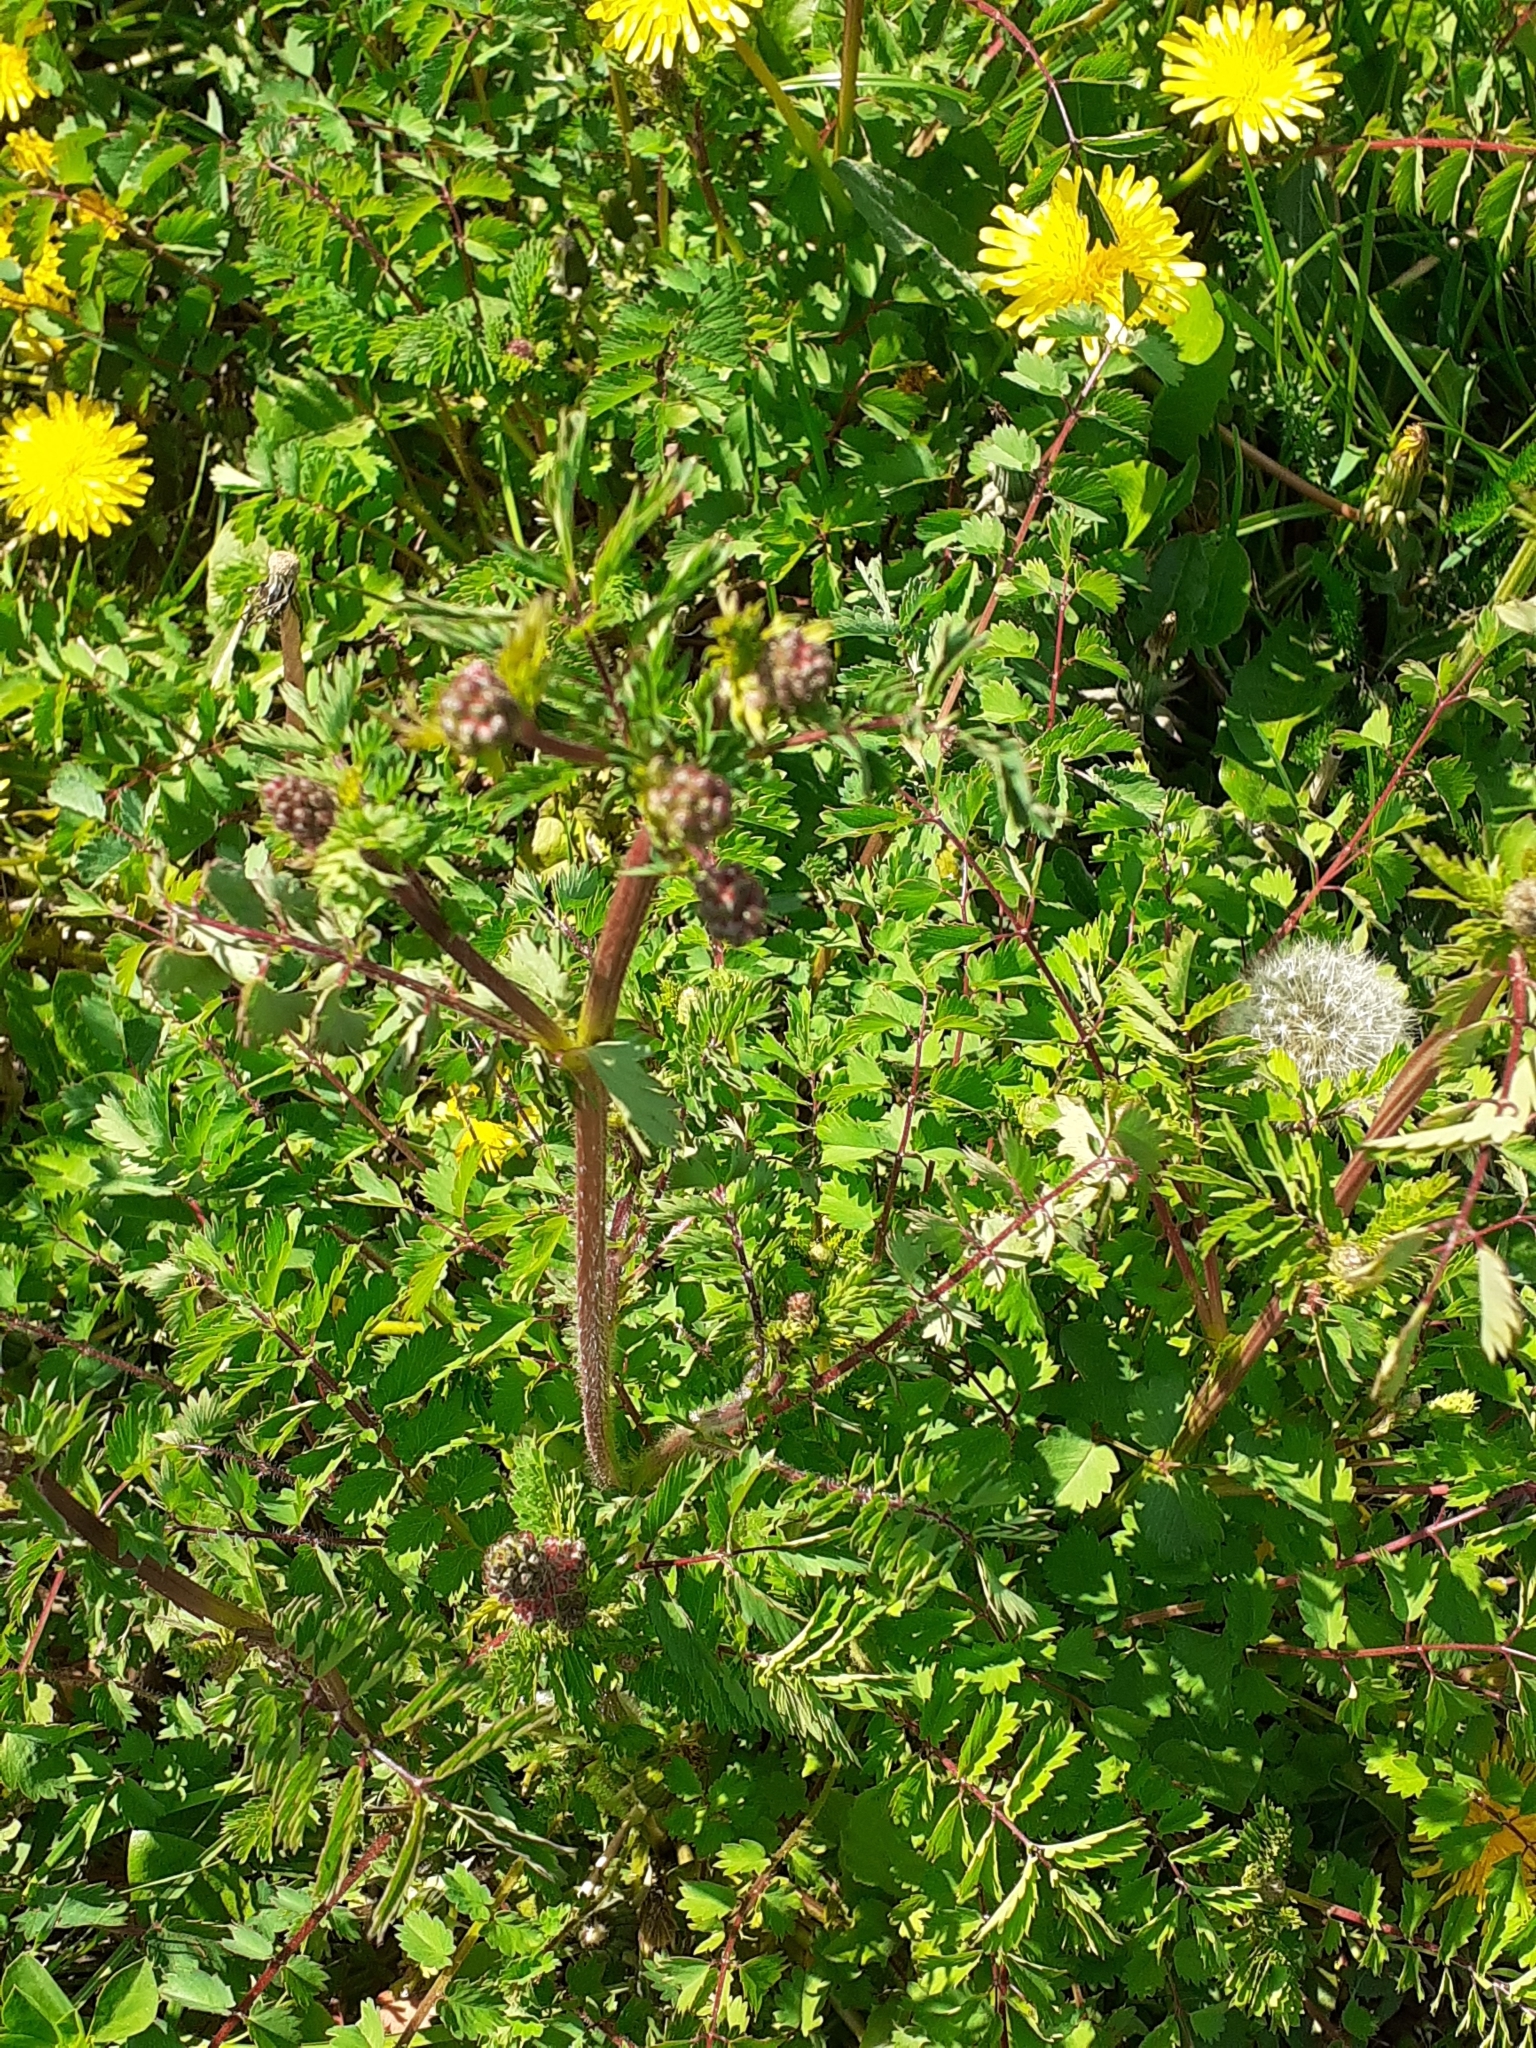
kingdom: Plantae
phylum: Tracheophyta
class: Magnoliopsida
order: Rosales
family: Rosaceae
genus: Poterium
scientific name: Poterium sanguisorba
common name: Salad burnet
